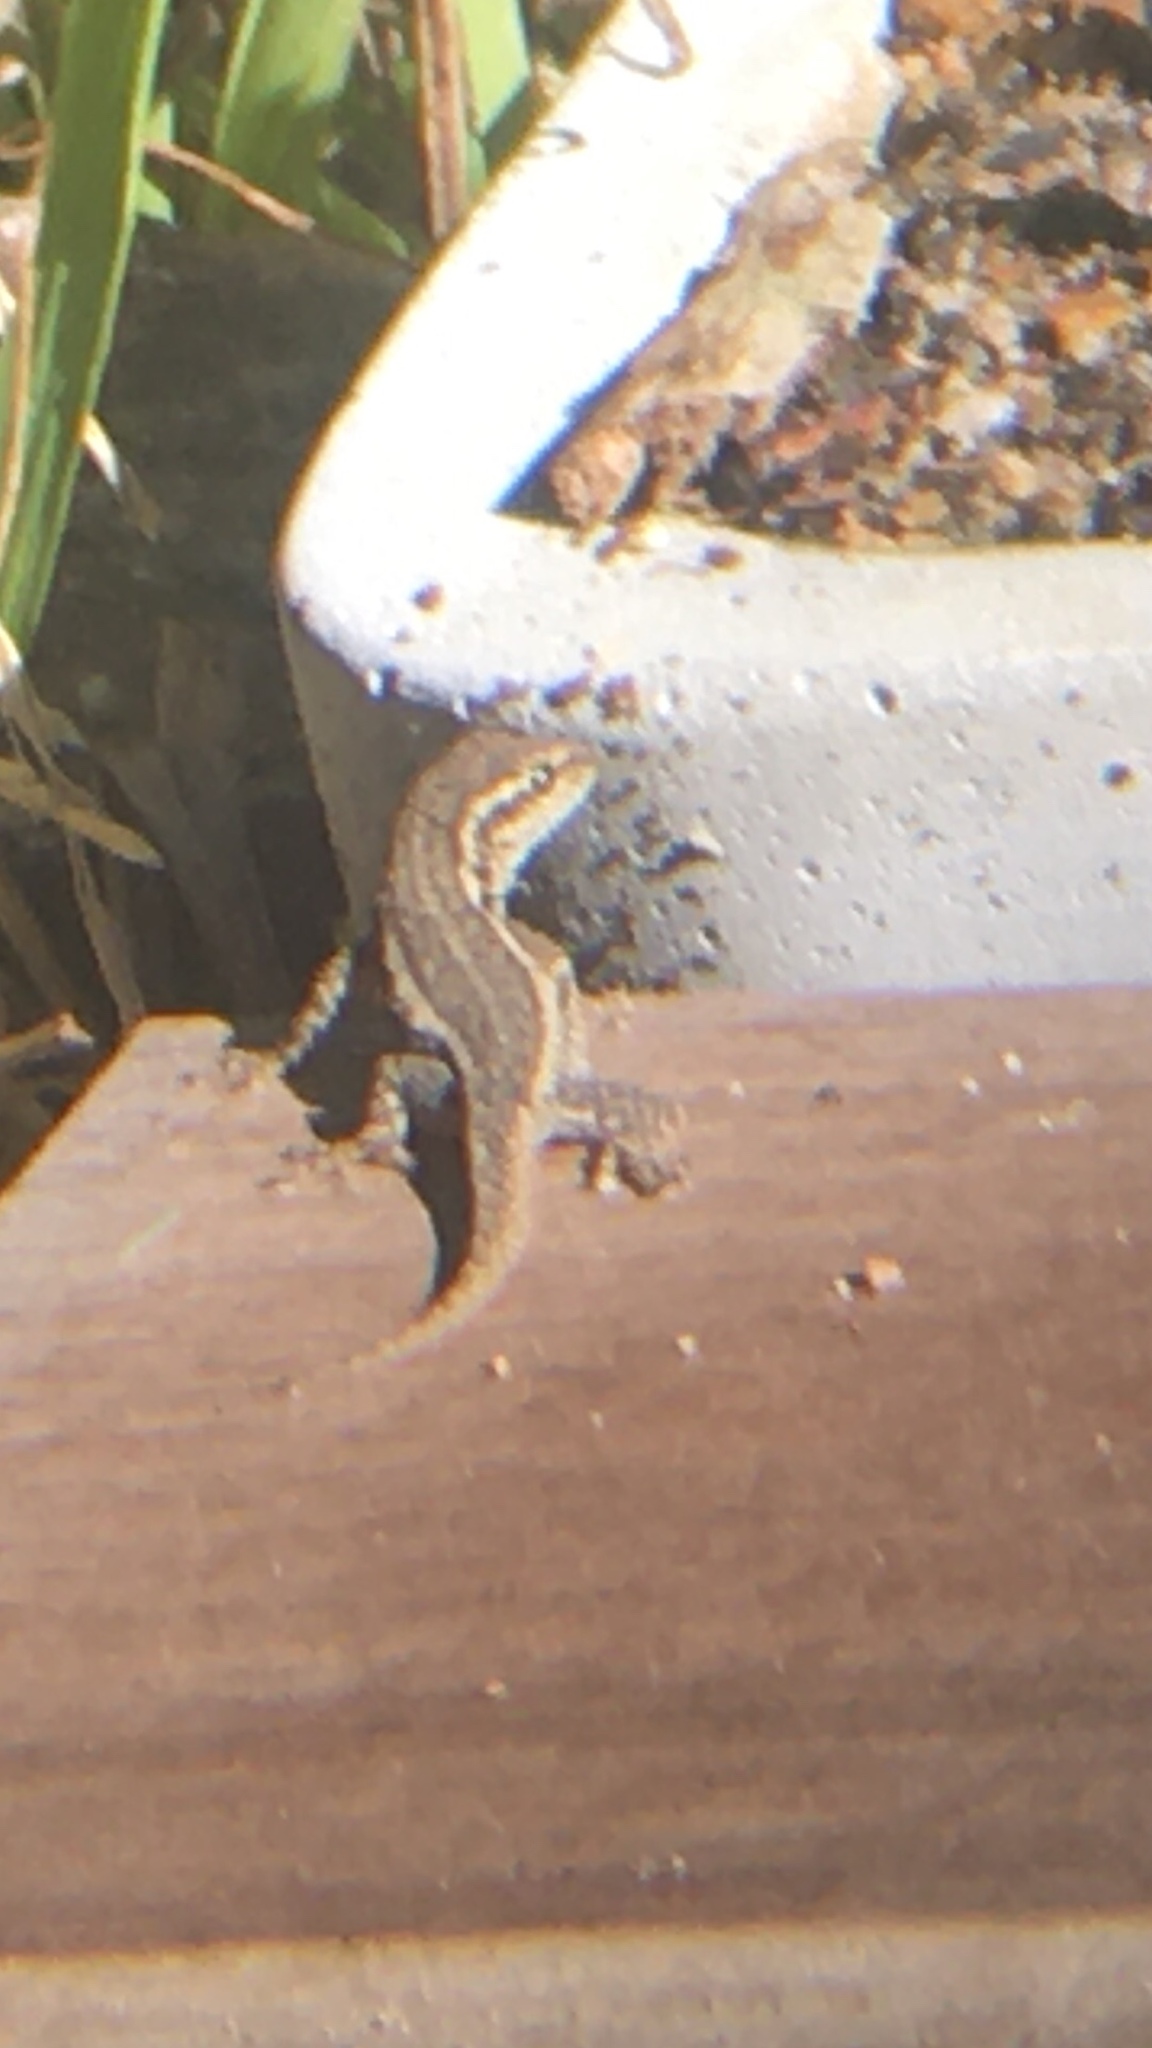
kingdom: Animalia
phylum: Chordata
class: Squamata
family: Gekkonidae
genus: Lygodactylus
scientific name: Lygodactylus capensis
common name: Cape dwarf gecko
